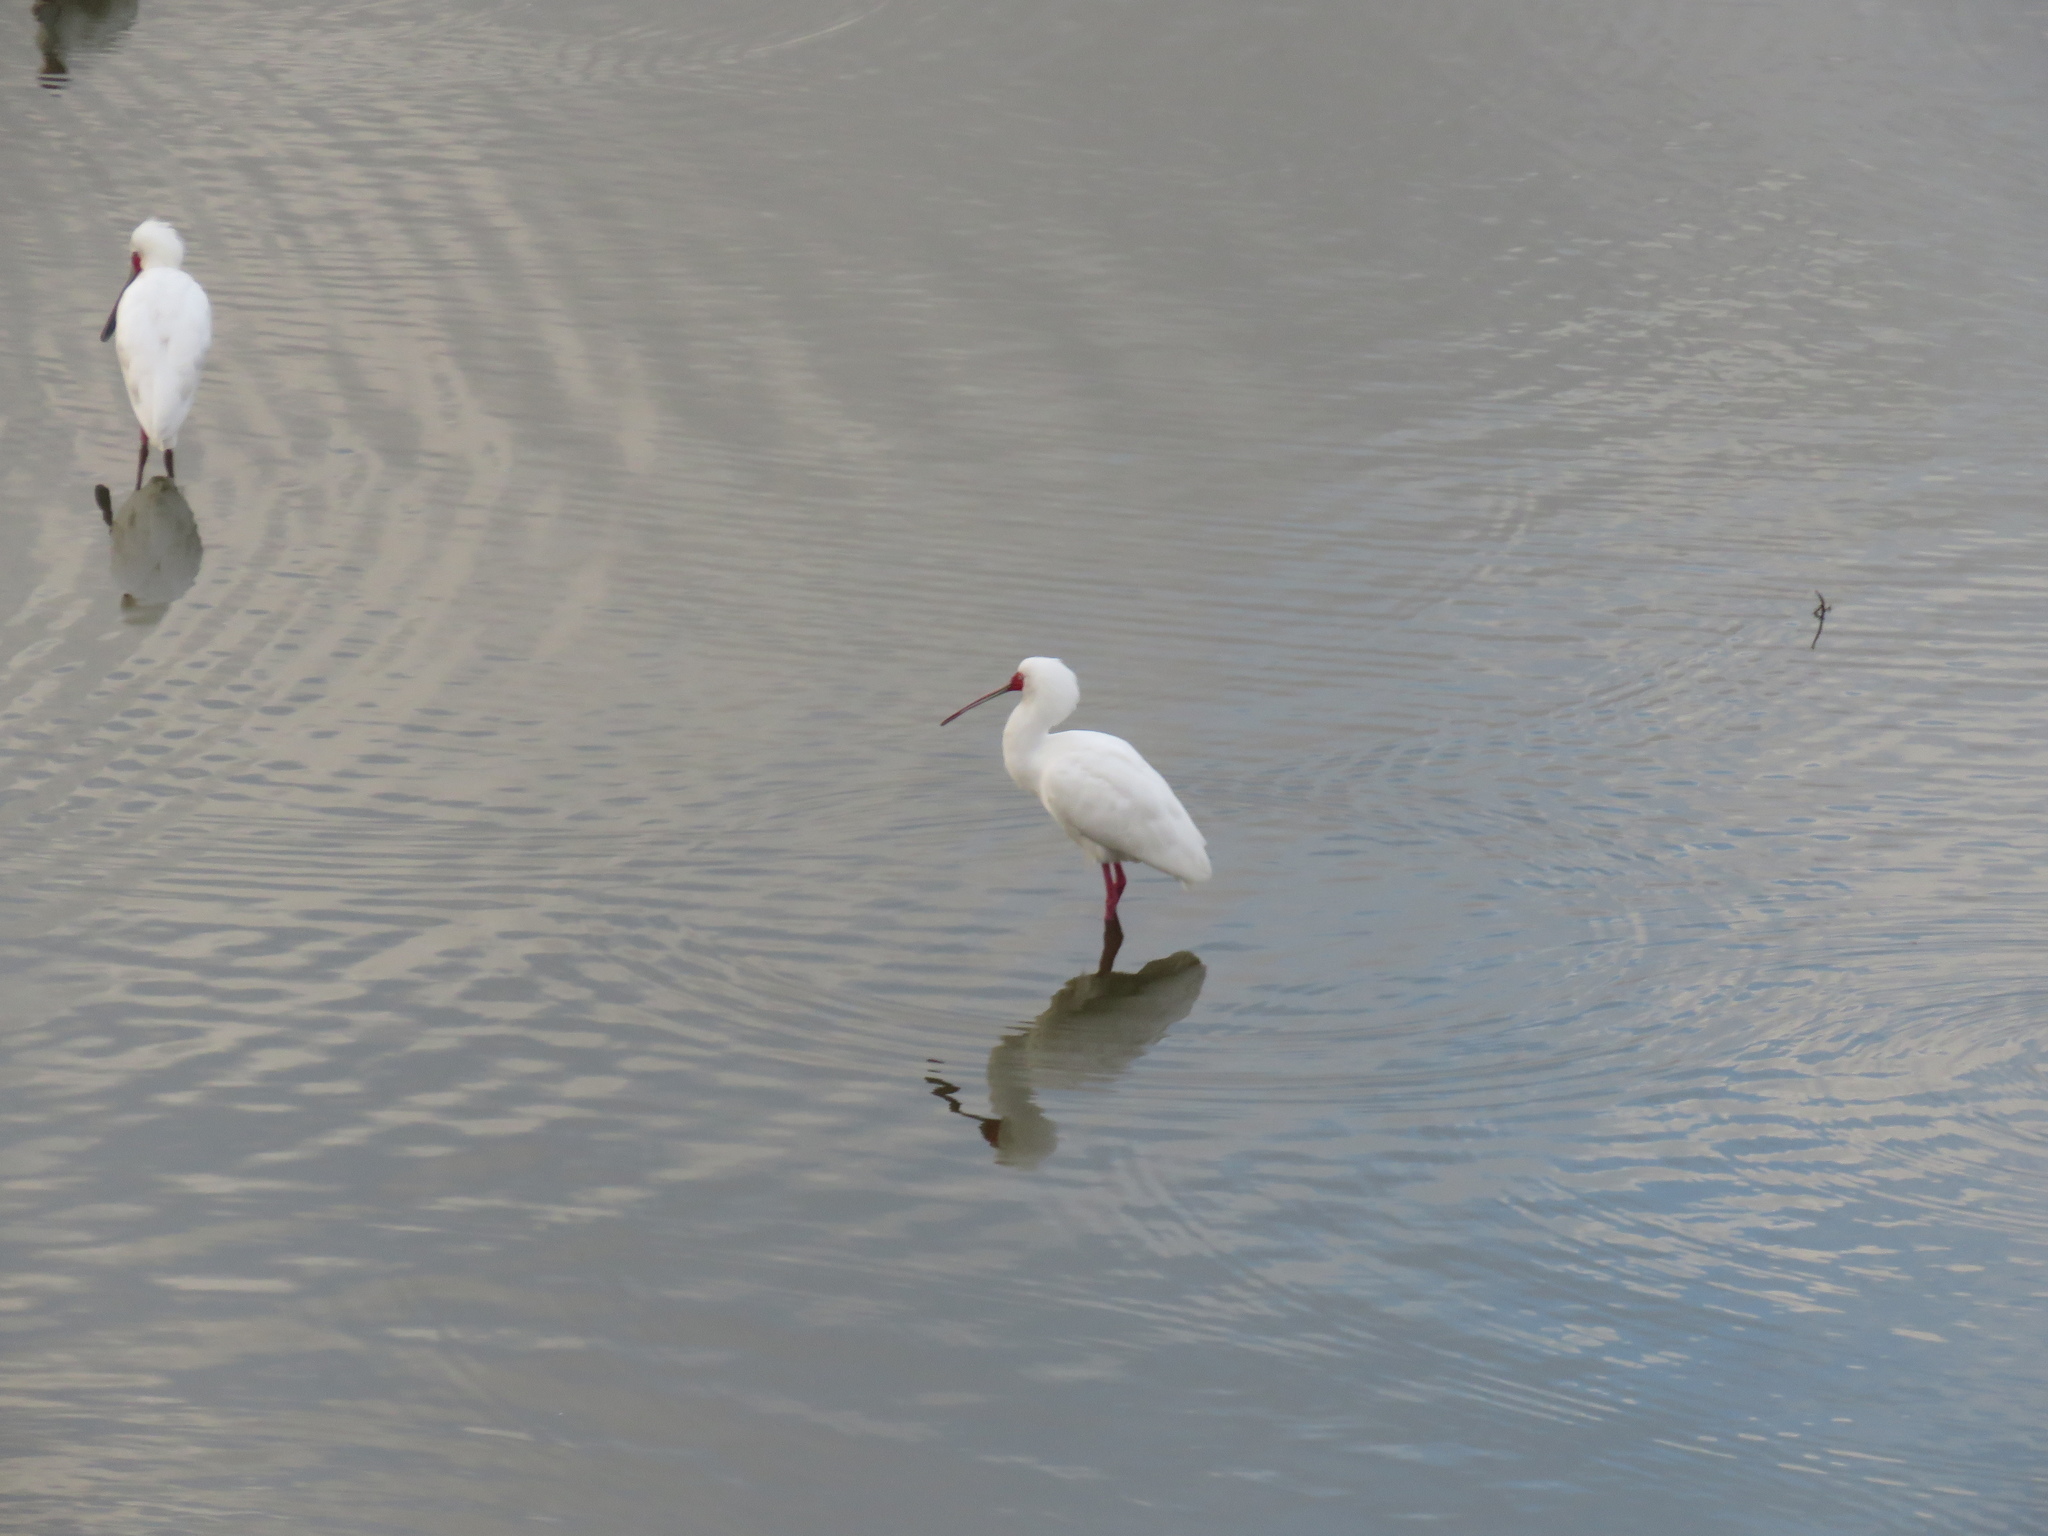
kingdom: Animalia
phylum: Chordata
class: Aves
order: Pelecaniformes
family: Threskiornithidae
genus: Platalea
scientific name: Platalea alba
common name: African spoonbill
